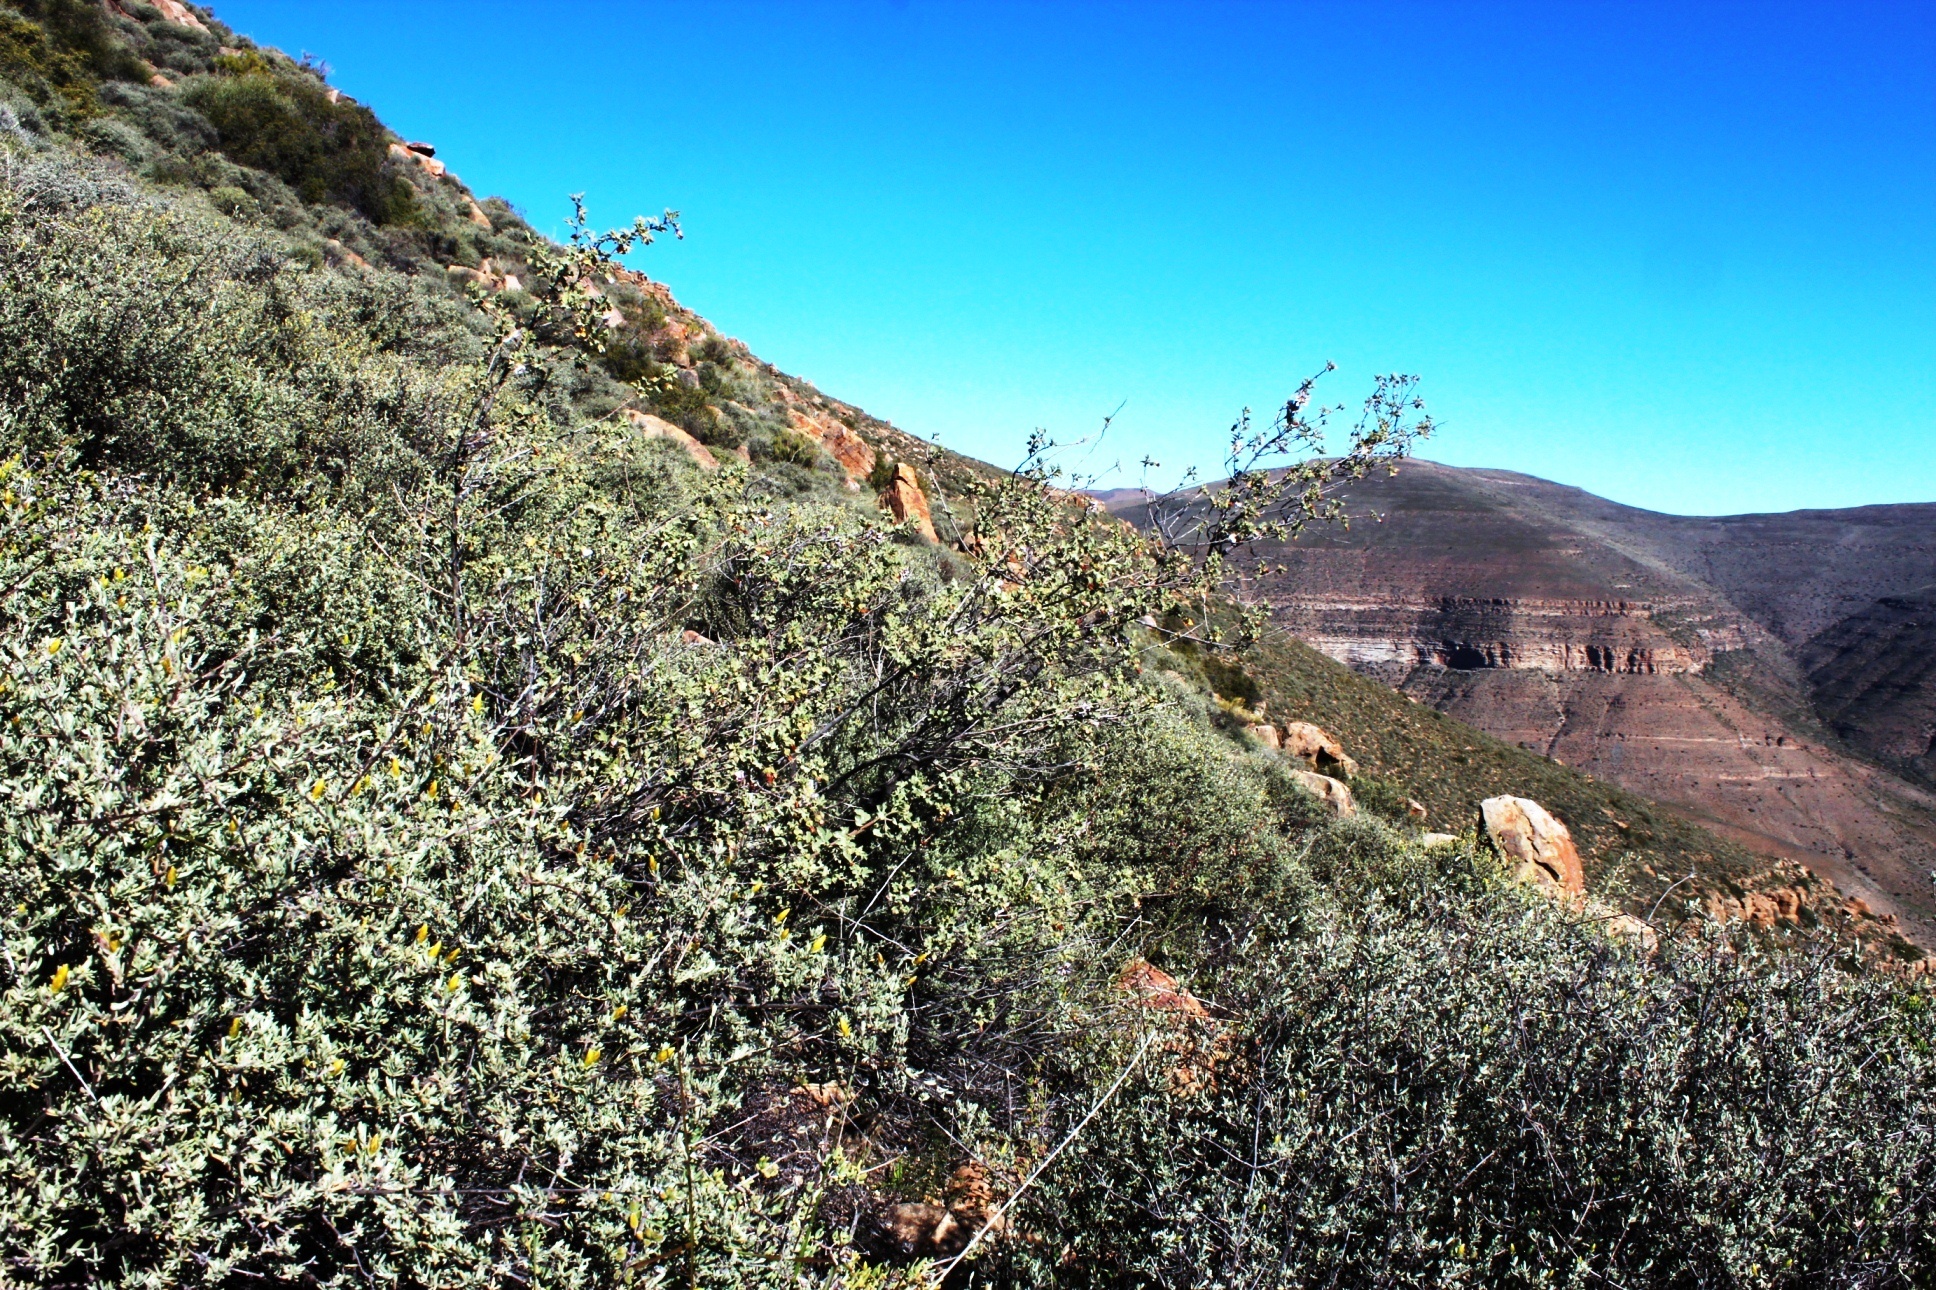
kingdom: Plantae
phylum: Tracheophyta
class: Magnoliopsida
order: Malvales
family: Malvaceae
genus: Anisodontea
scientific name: Anisodontea triloba
